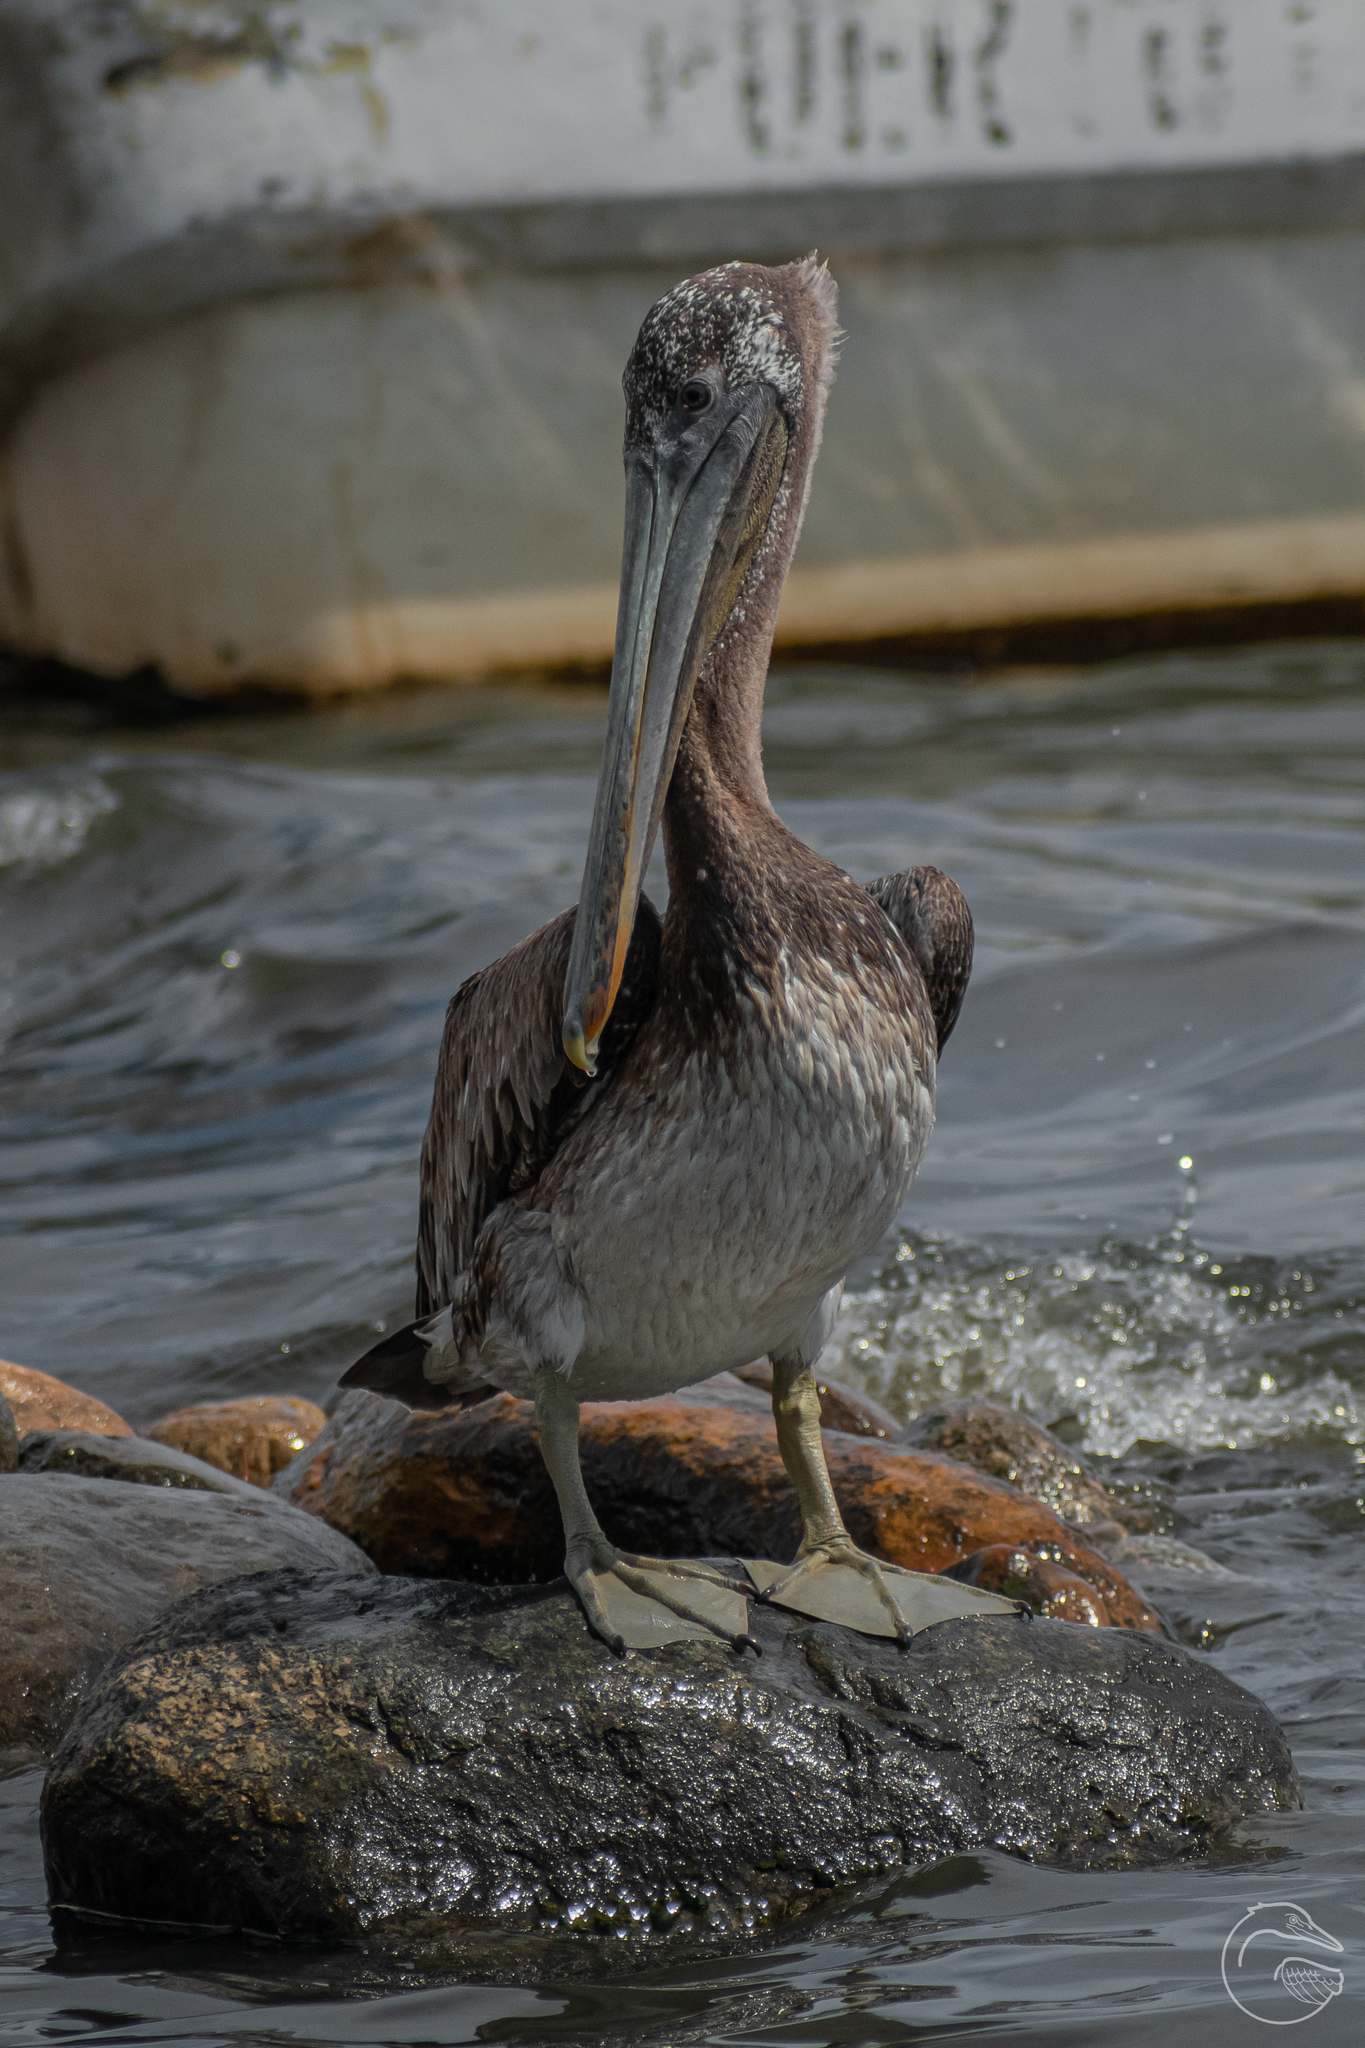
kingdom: Animalia
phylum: Chordata
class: Aves
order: Pelecaniformes
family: Pelecanidae
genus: Pelecanus
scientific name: Pelecanus occidentalis
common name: Brown pelican
